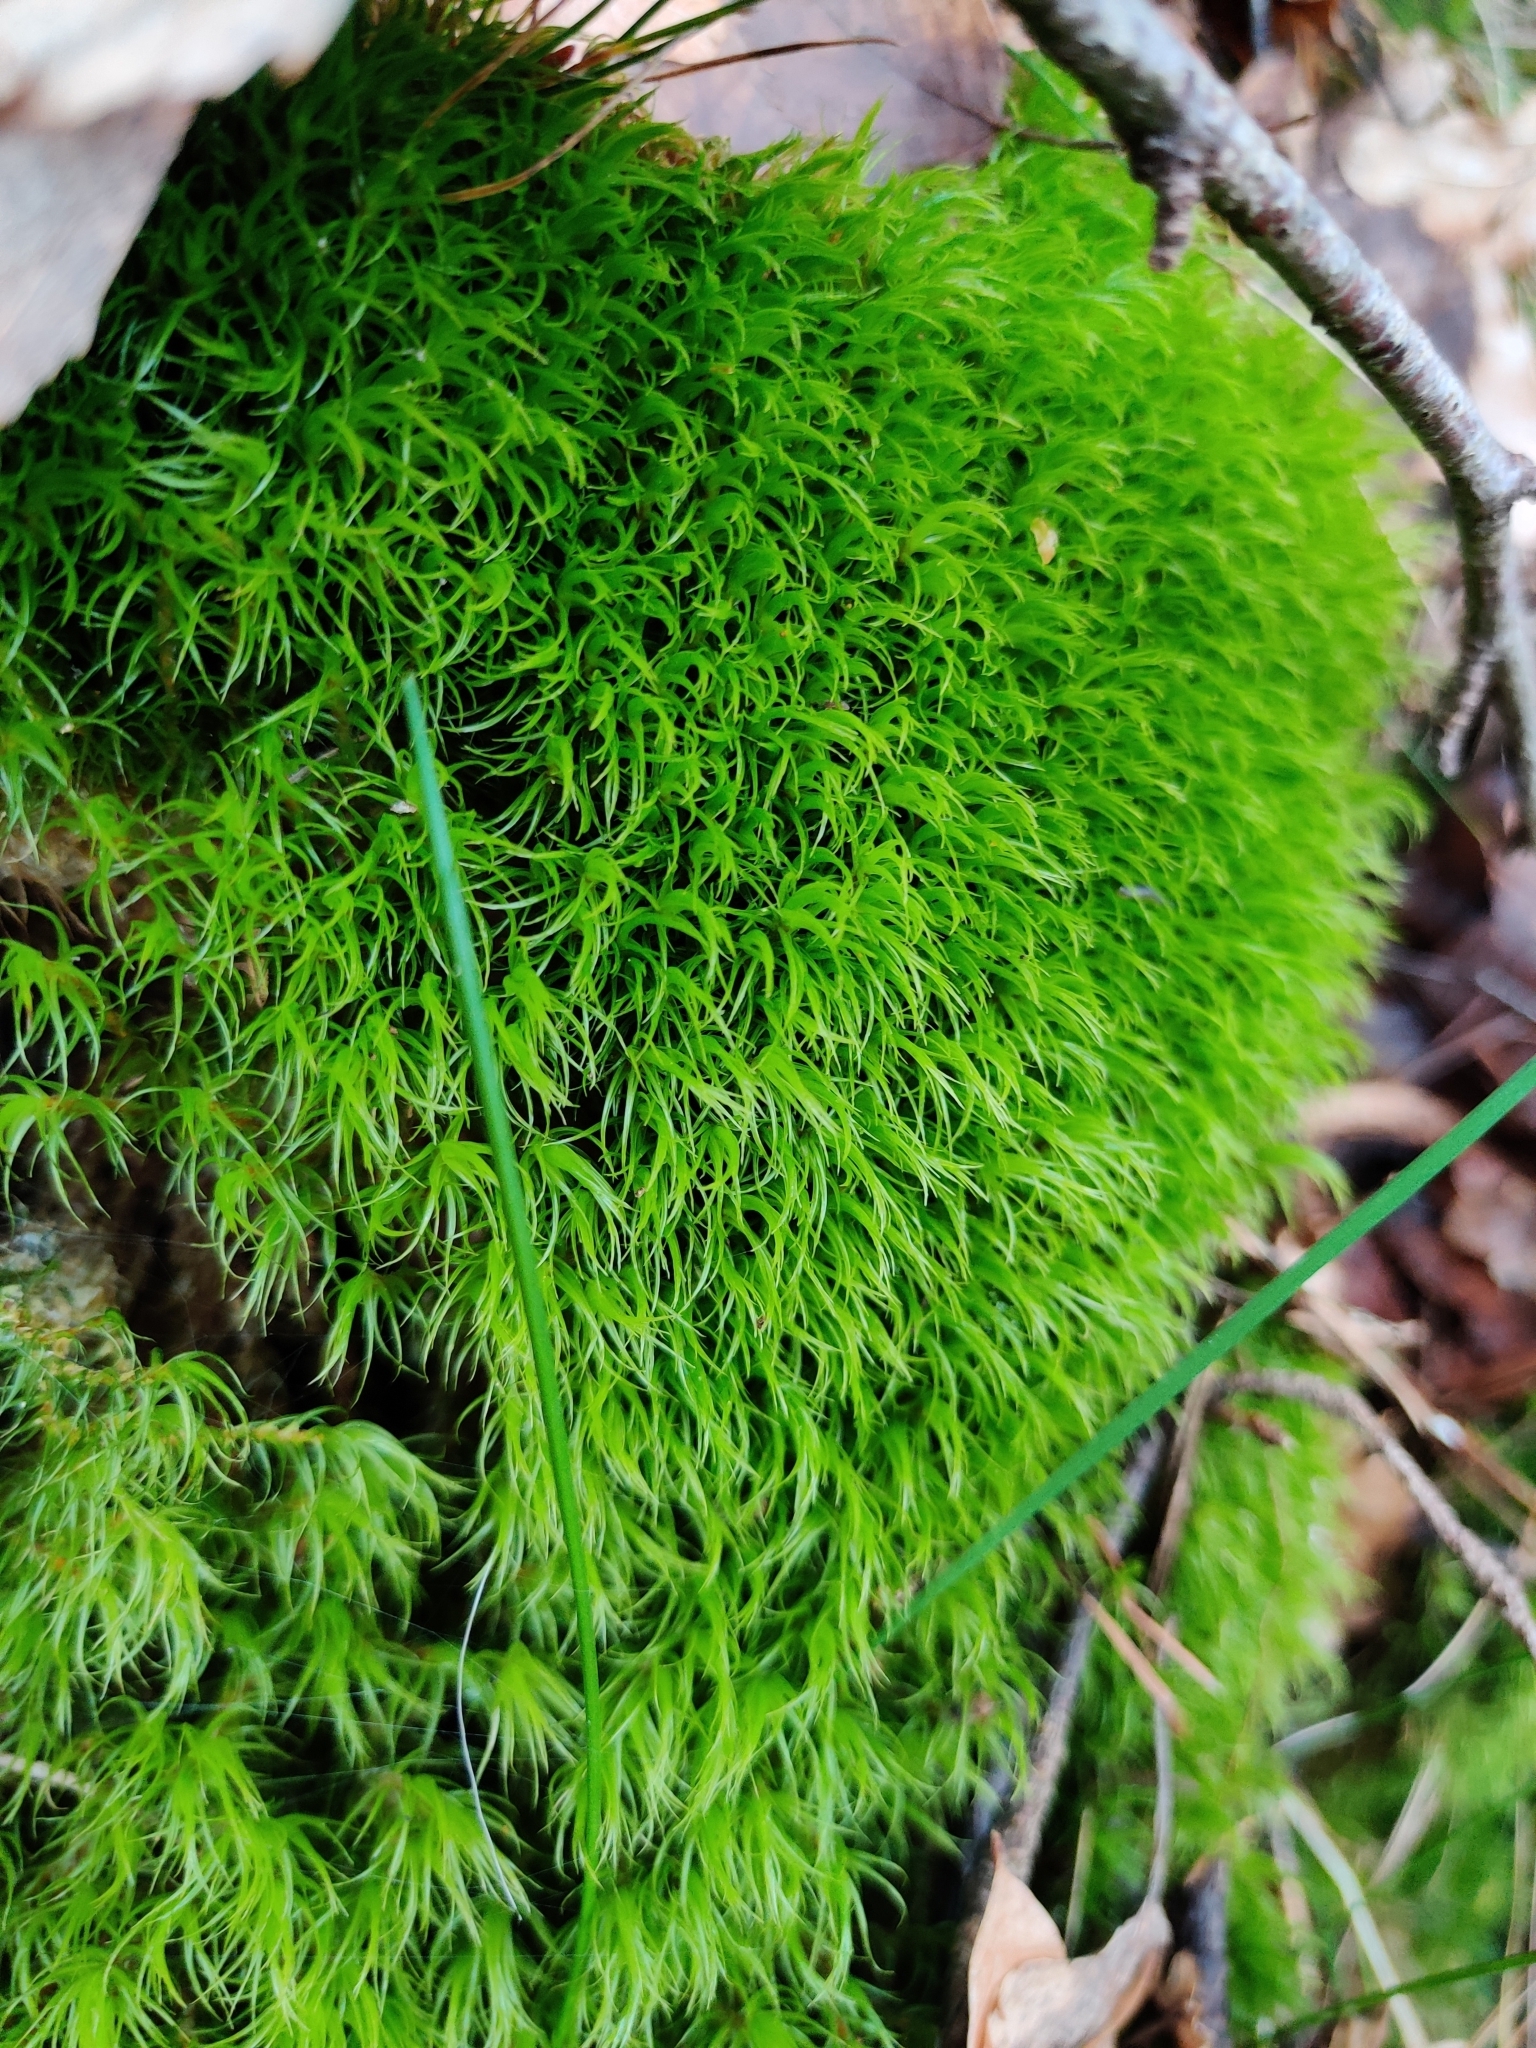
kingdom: Plantae
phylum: Bryophyta
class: Bryopsida
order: Dicranales
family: Dicranaceae
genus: Dicranum
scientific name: Dicranum scoparium
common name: Broom fork-moss
